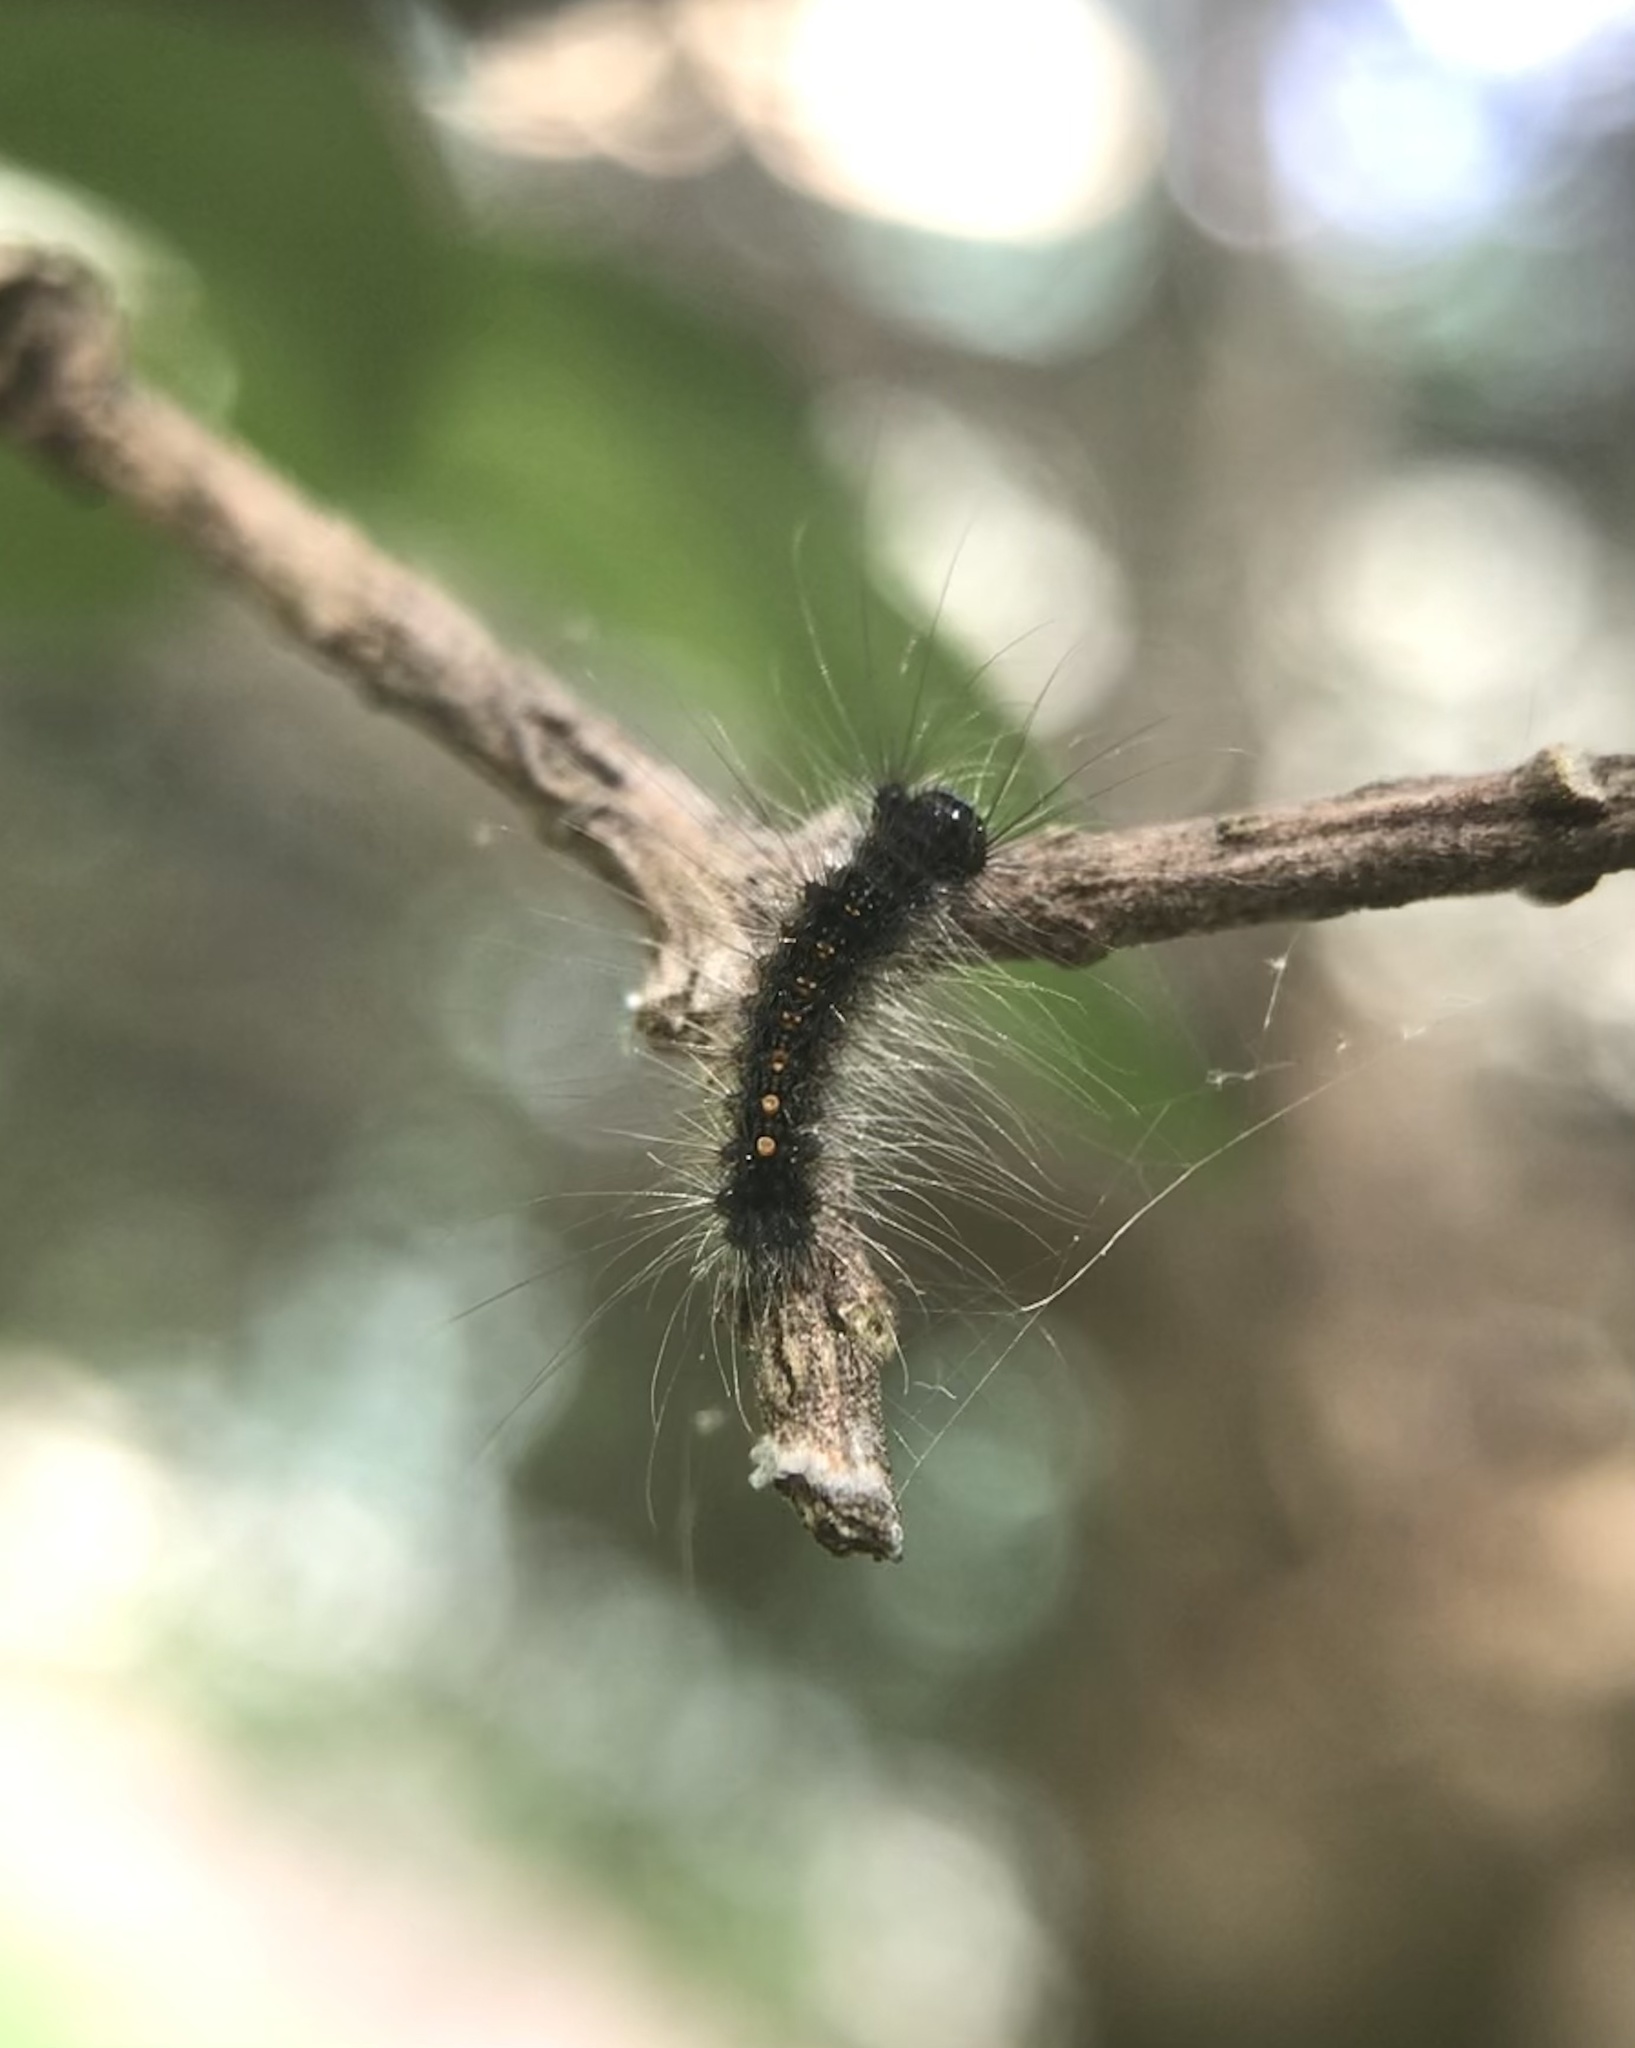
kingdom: Animalia
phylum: Arthropoda
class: Insecta
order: Lepidoptera
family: Erebidae
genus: Lymantria
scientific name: Lymantria dispar
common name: Gypsy moth
